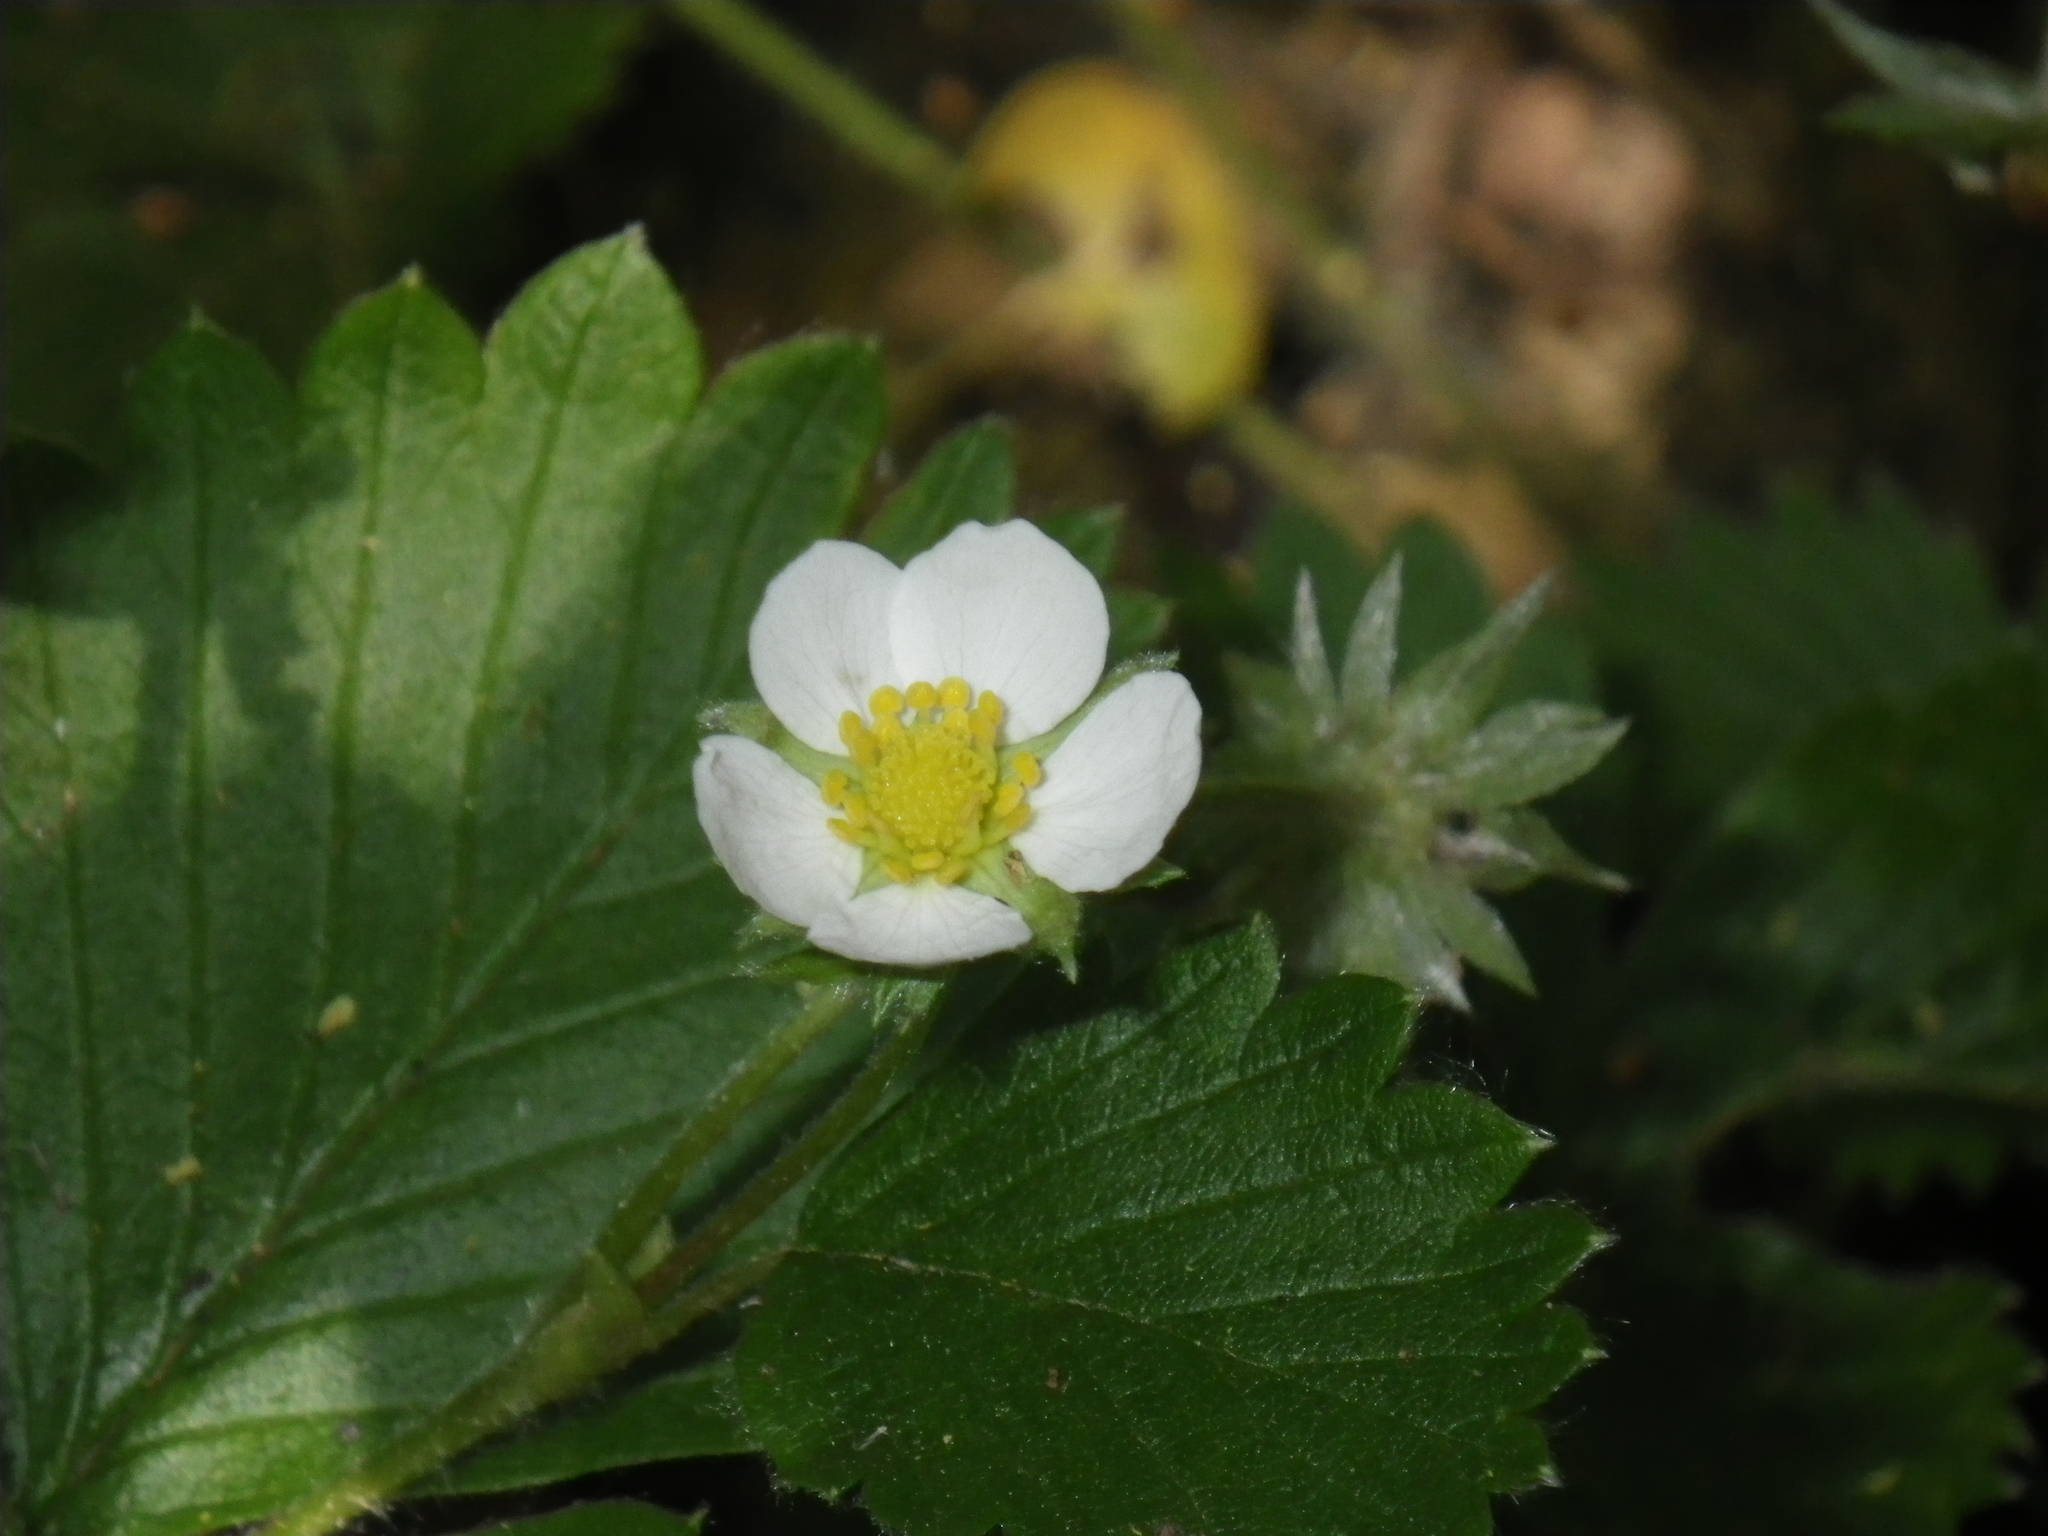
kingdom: Plantae
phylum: Tracheophyta
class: Magnoliopsida
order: Rosales
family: Rosaceae
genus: Fragaria
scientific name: Fragaria vesca
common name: Wild strawberry
